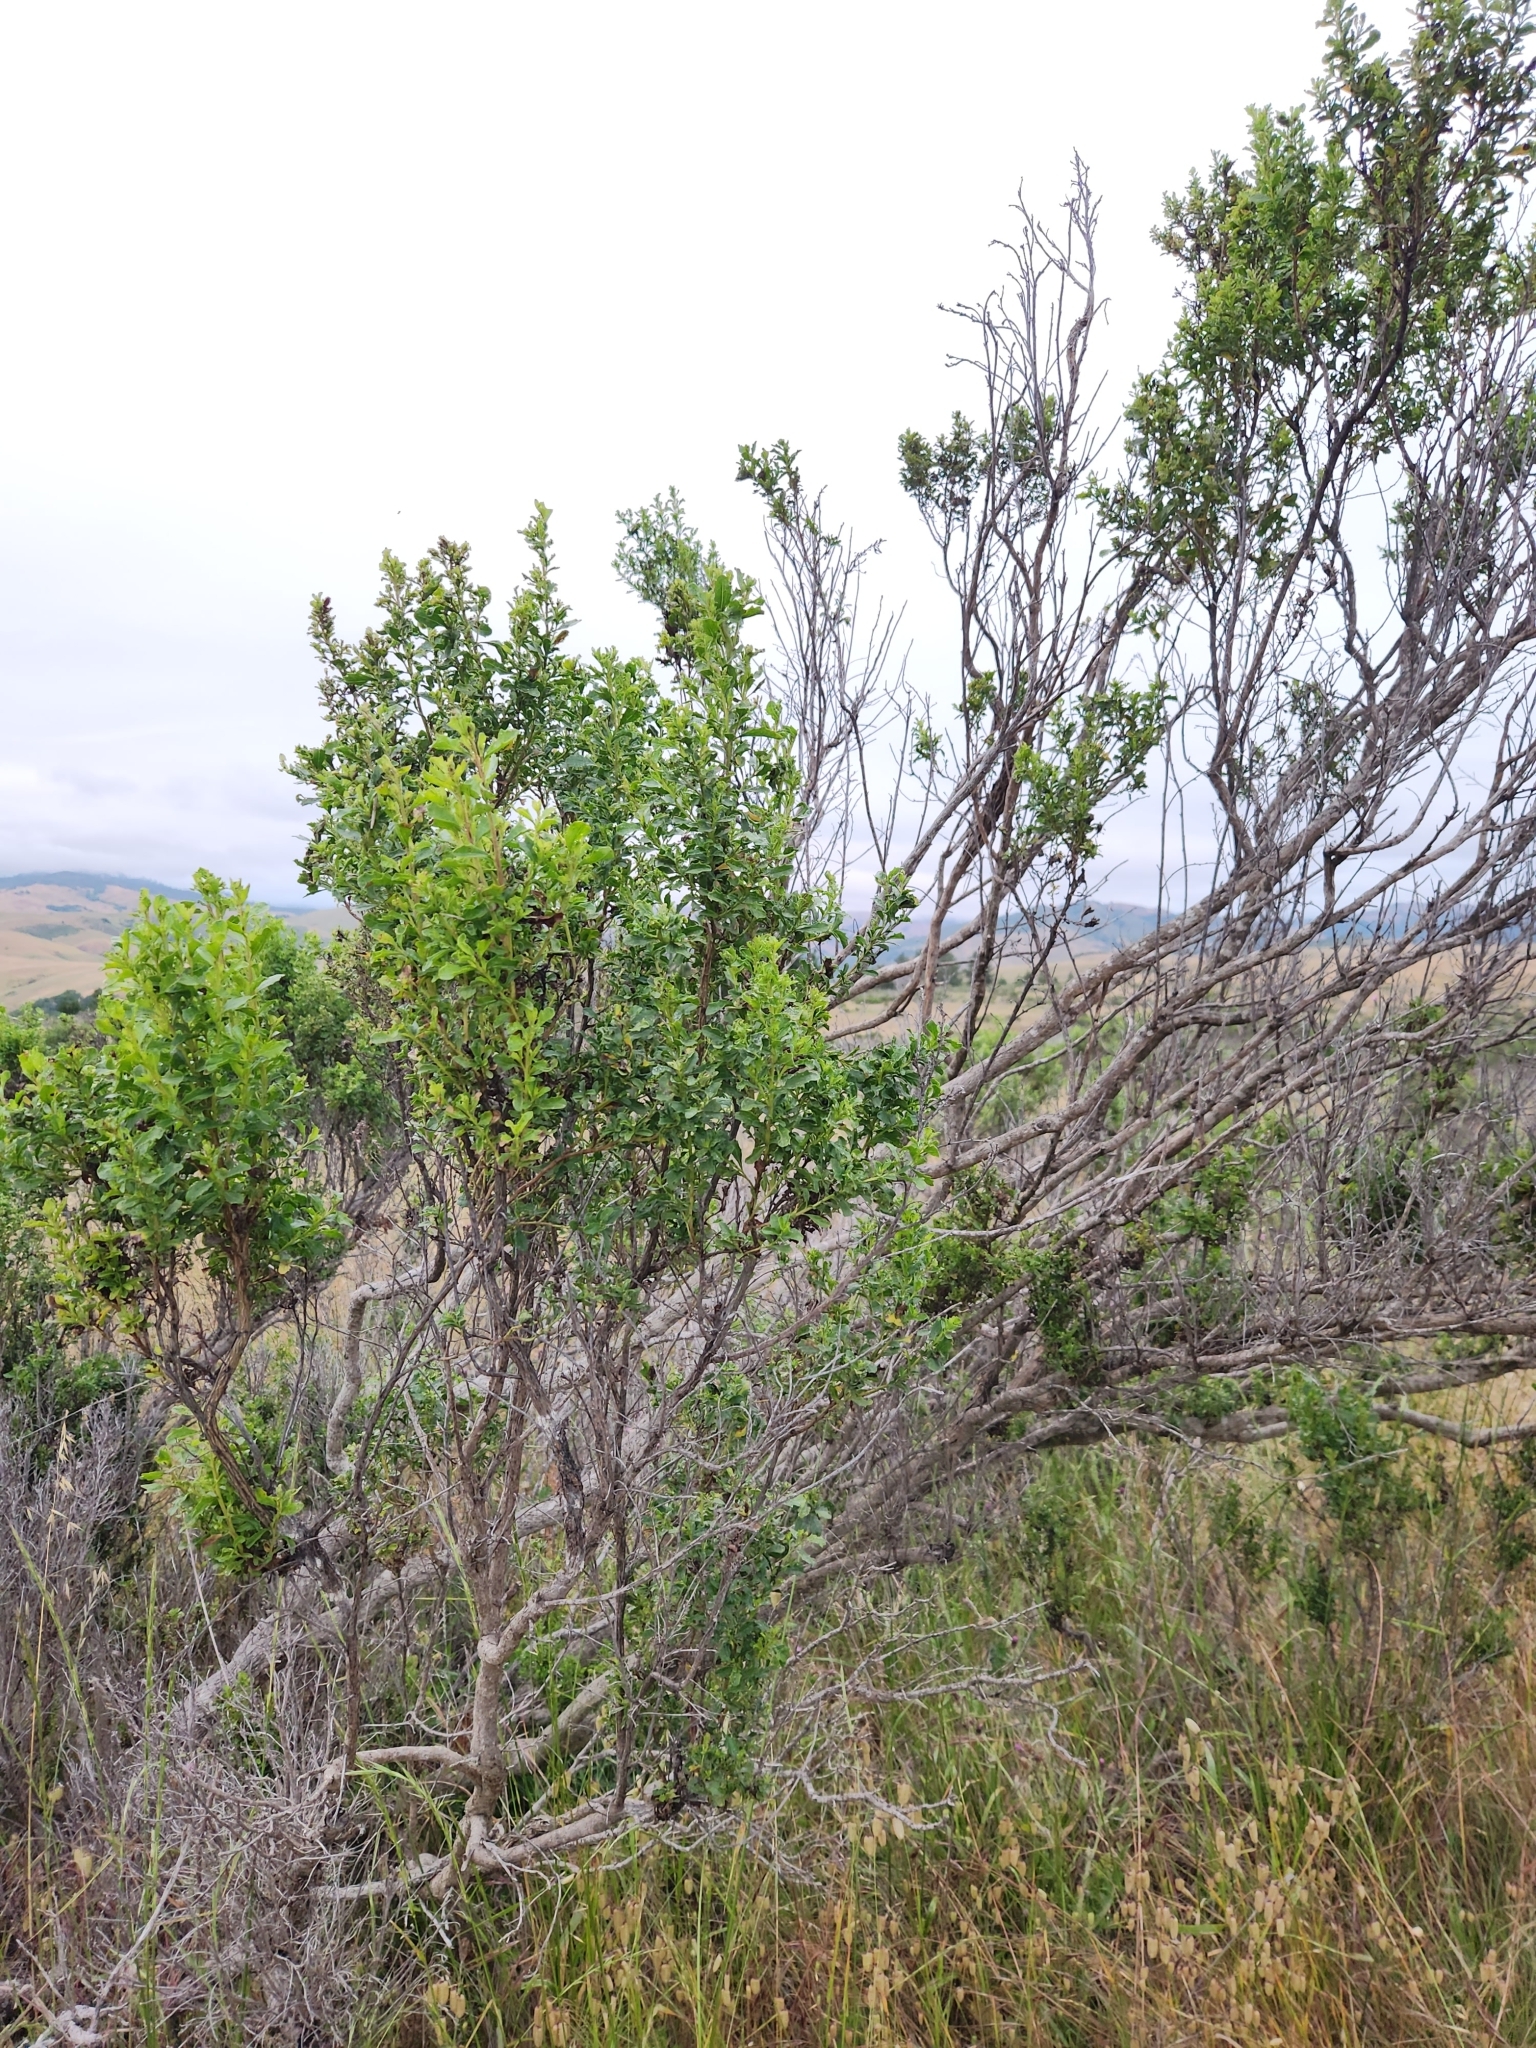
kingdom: Plantae
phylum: Tracheophyta
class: Magnoliopsida
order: Asterales
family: Asteraceae
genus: Baccharis
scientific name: Baccharis pilularis
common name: Coyotebrush
